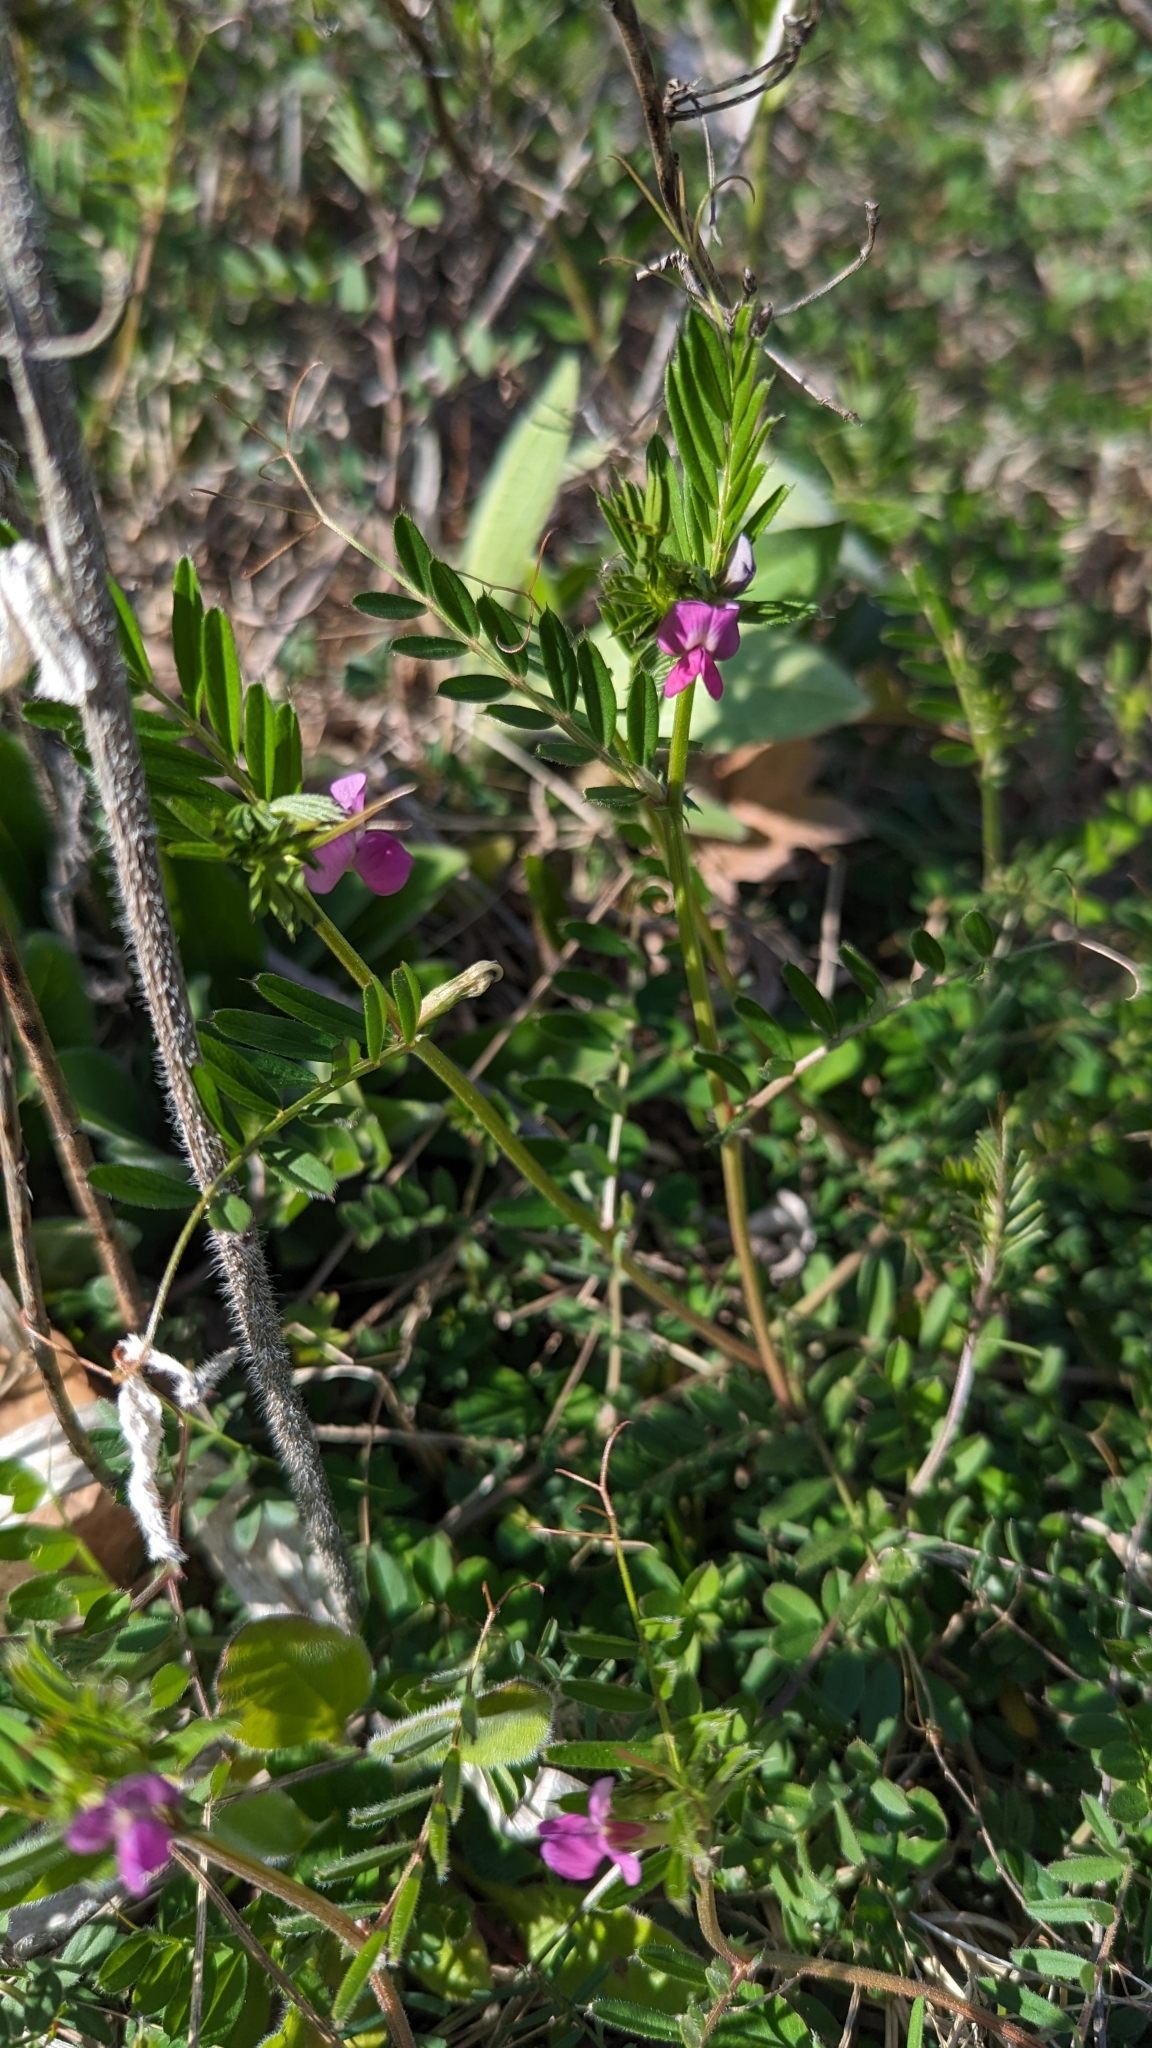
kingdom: Plantae
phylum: Tracheophyta
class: Magnoliopsida
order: Fabales
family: Fabaceae
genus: Vicia
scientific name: Vicia sativa
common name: Garden vetch
